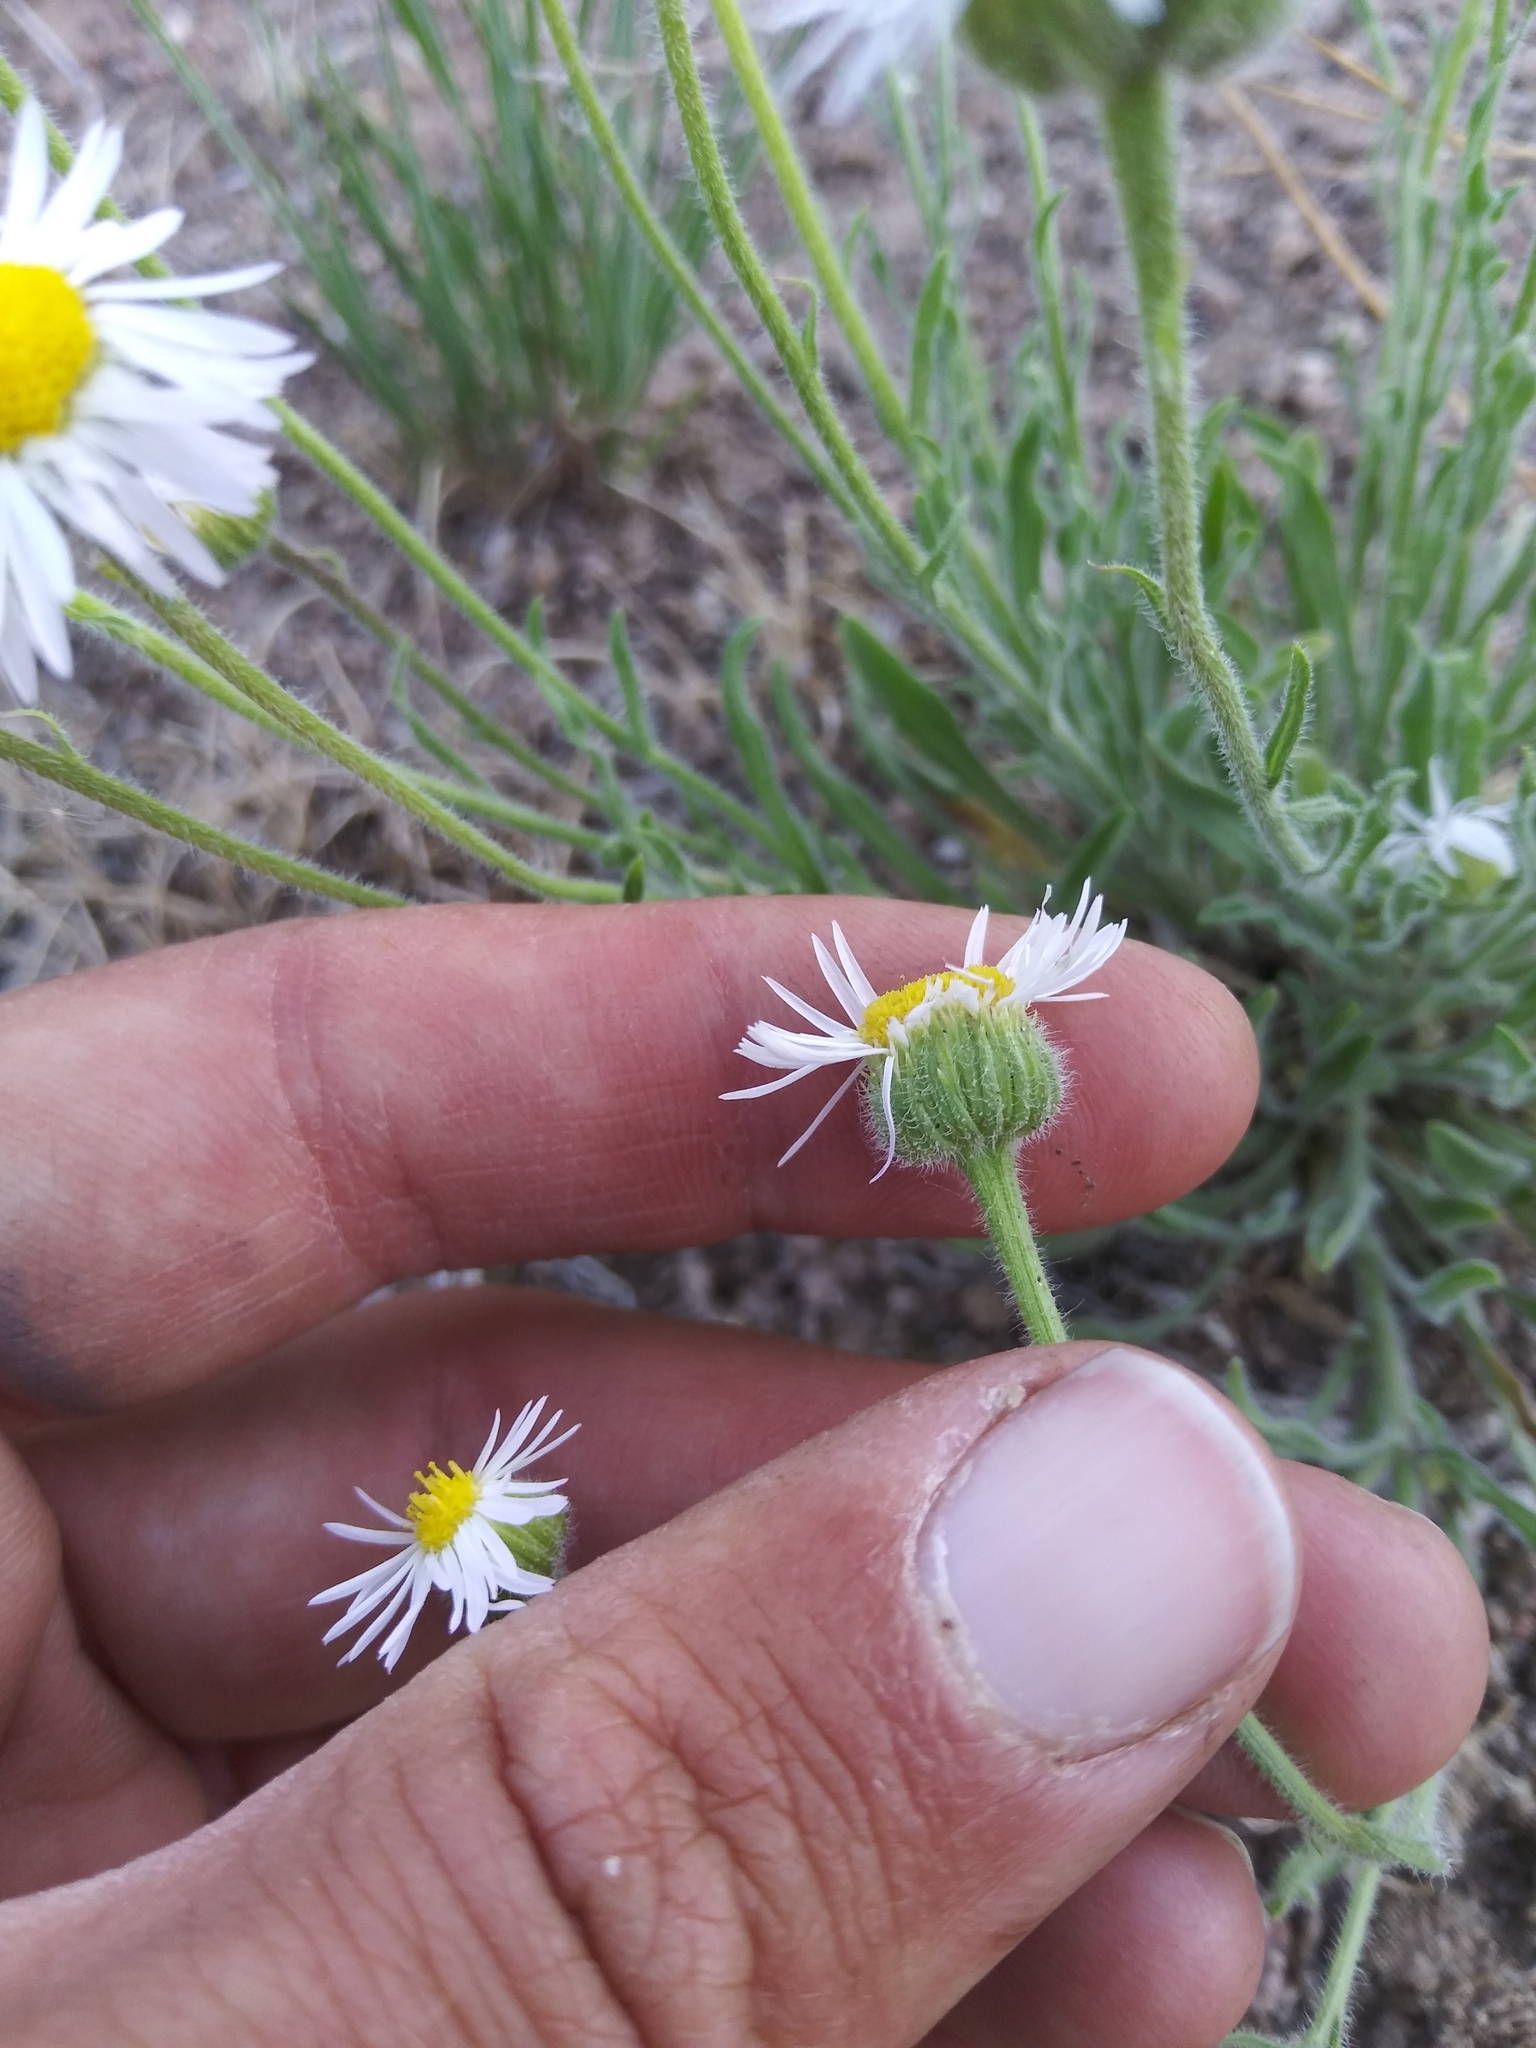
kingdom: Plantae
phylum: Tracheophyta
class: Magnoliopsida
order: Asterales
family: Asteraceae
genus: Erigeron
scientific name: Erigeron pumilus
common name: Shaggy fleabane
